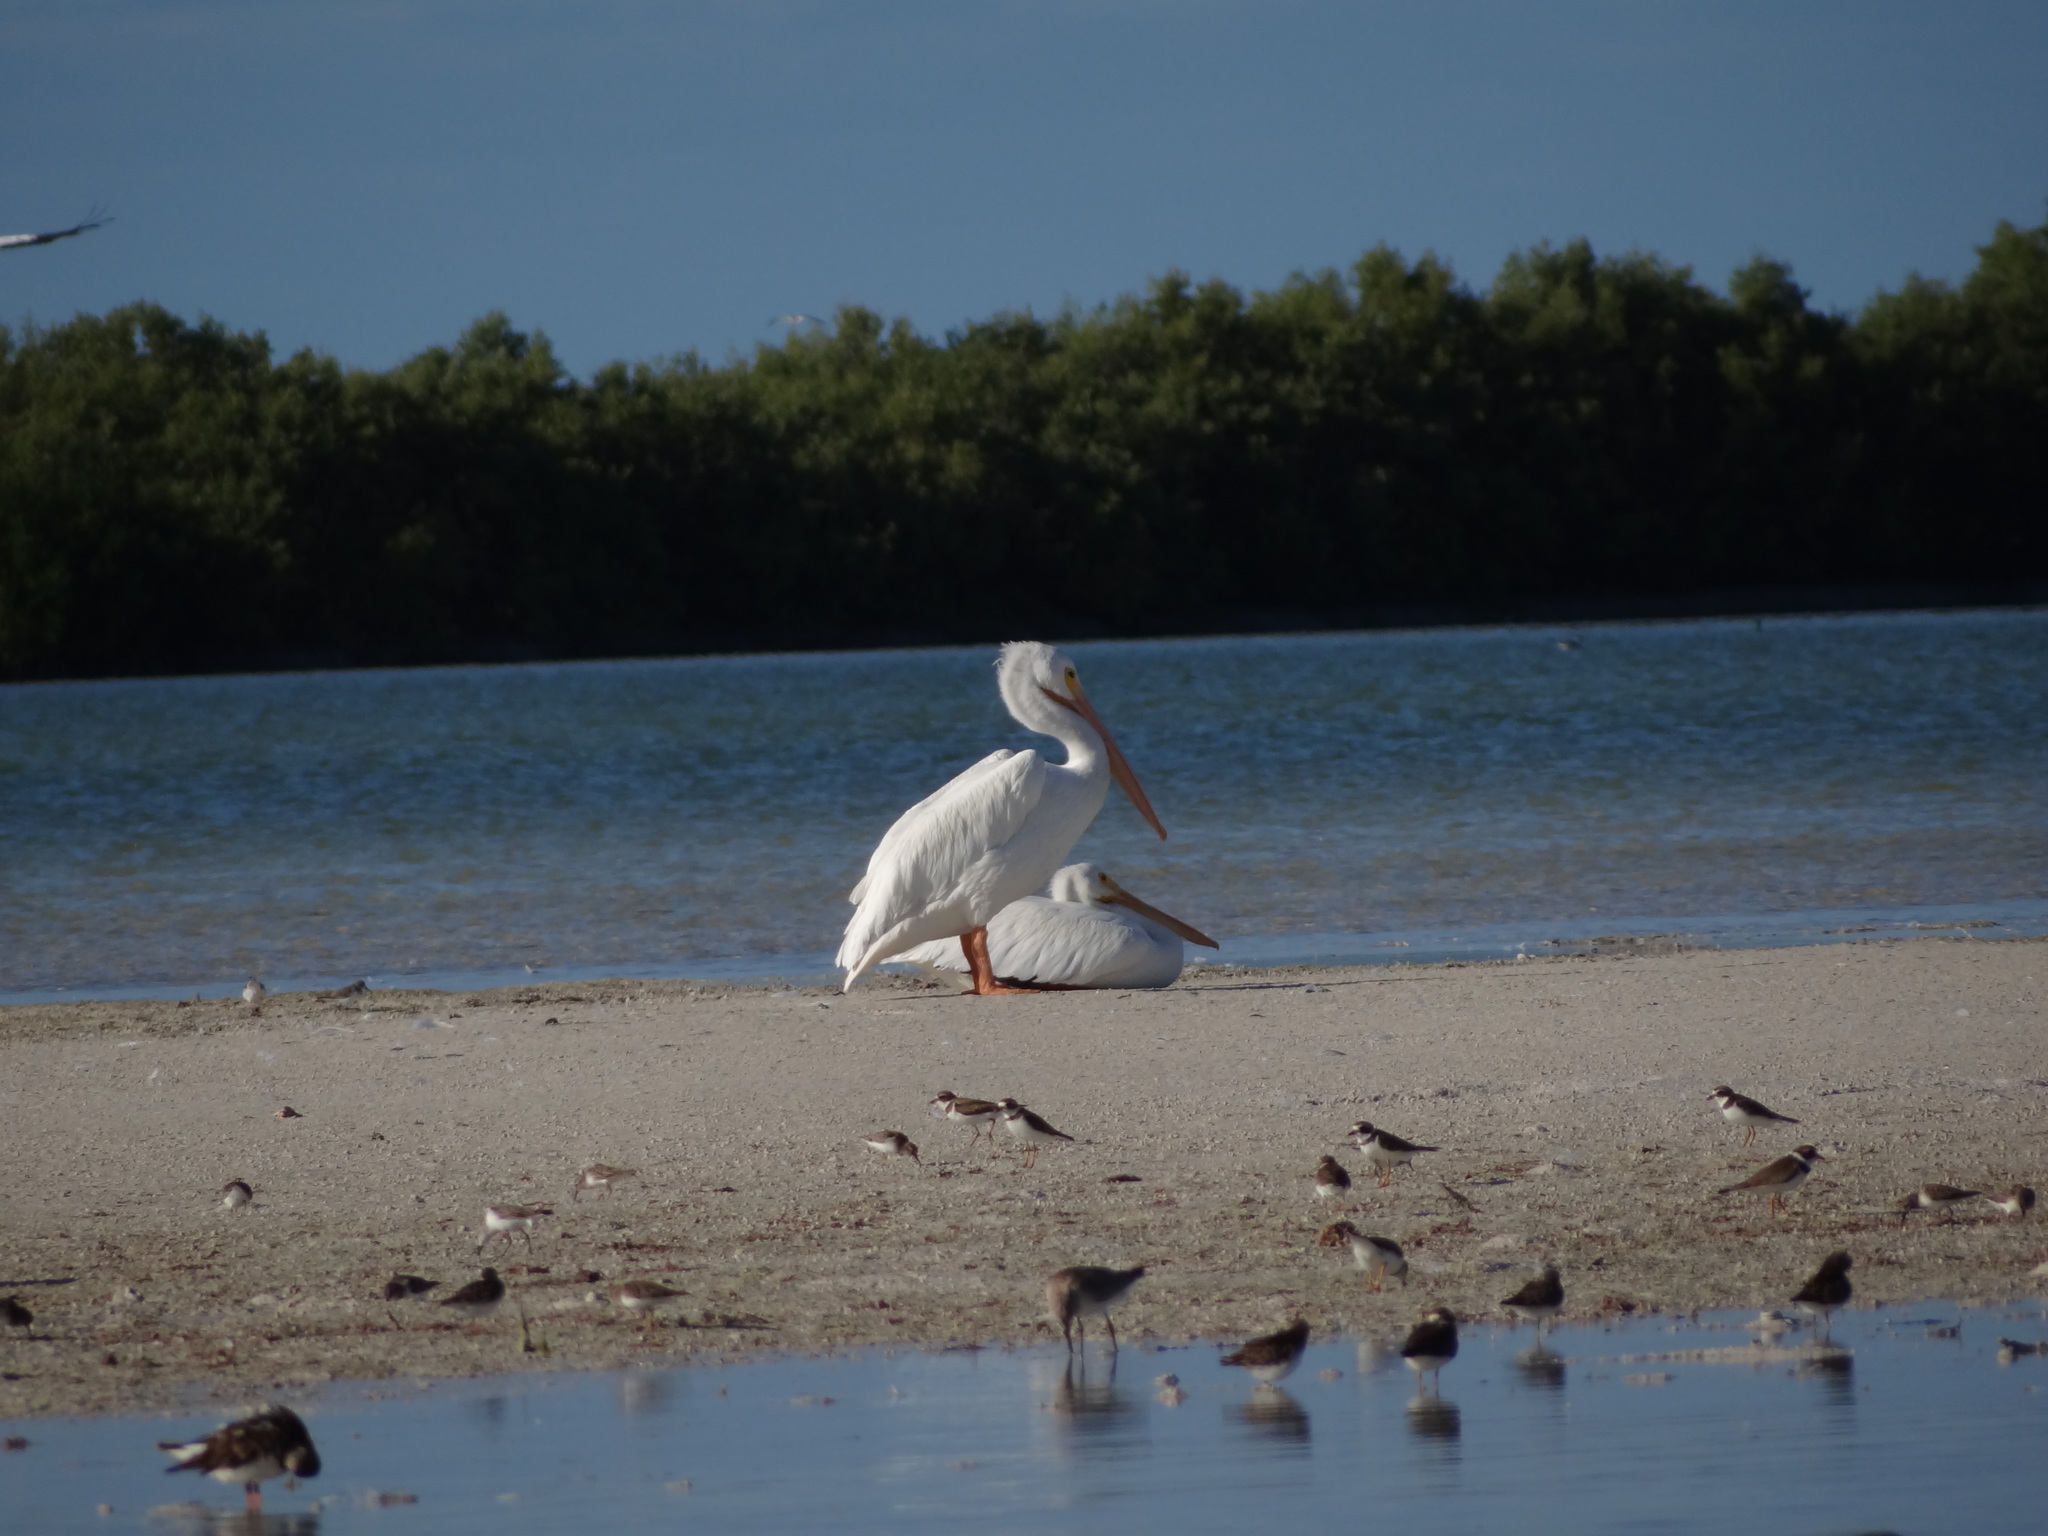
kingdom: Animalia
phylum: Chordata
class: Aves
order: Pelecaniformes
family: Pelecanidae
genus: Pelecanus
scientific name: Pelecanus erythrorhynchos
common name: American white pelican
